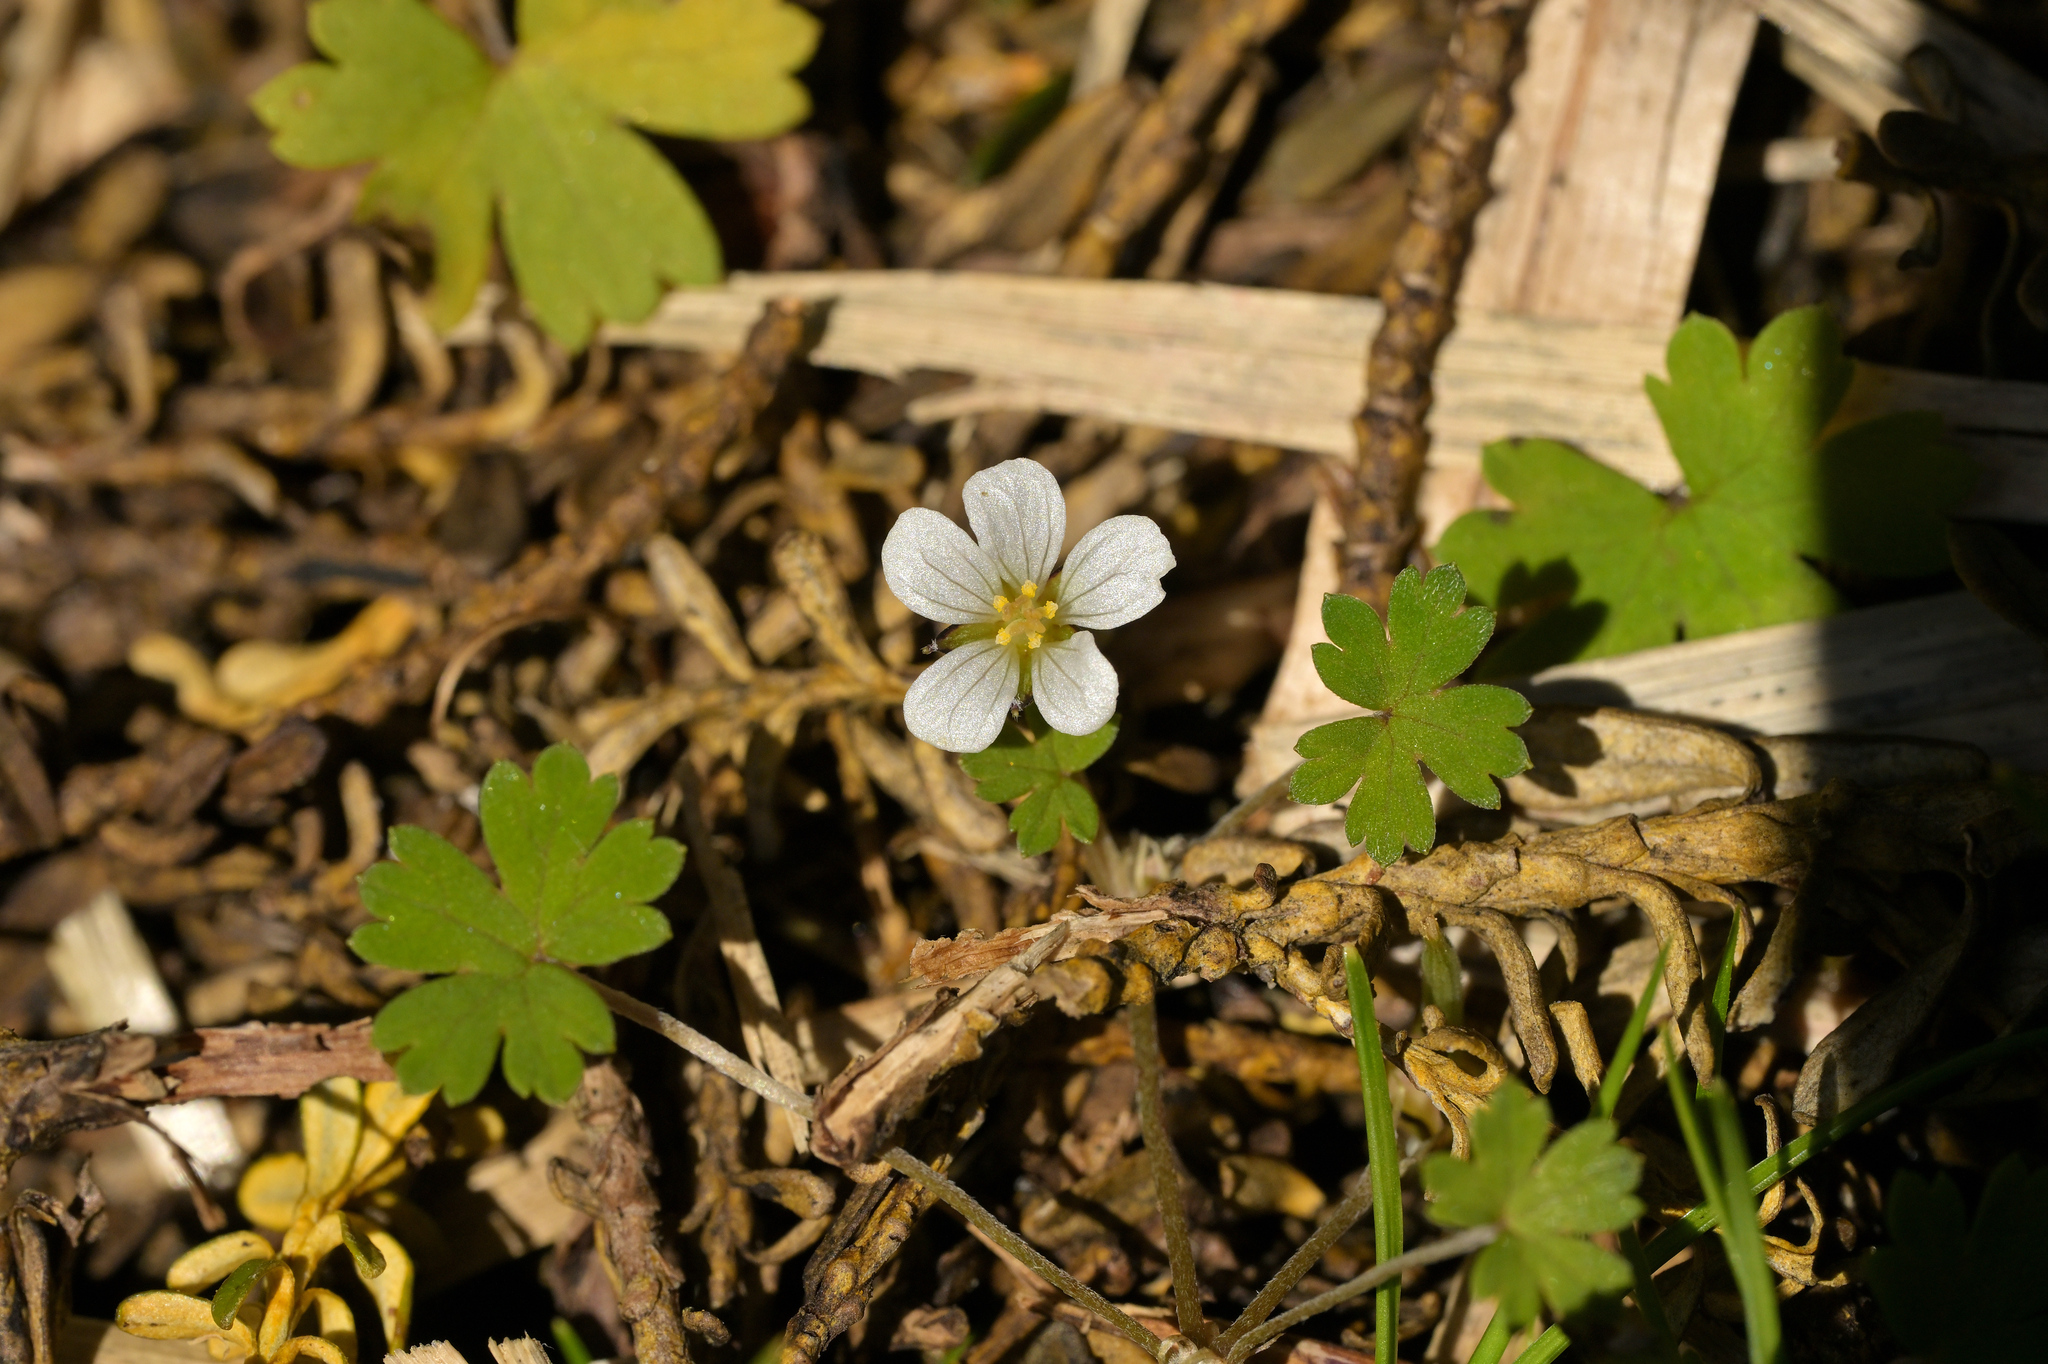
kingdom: Plantae
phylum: Tracheophyta
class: Magnoliopsida
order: Geraniales
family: Geraniaceae
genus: Geranium
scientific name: Geranium
